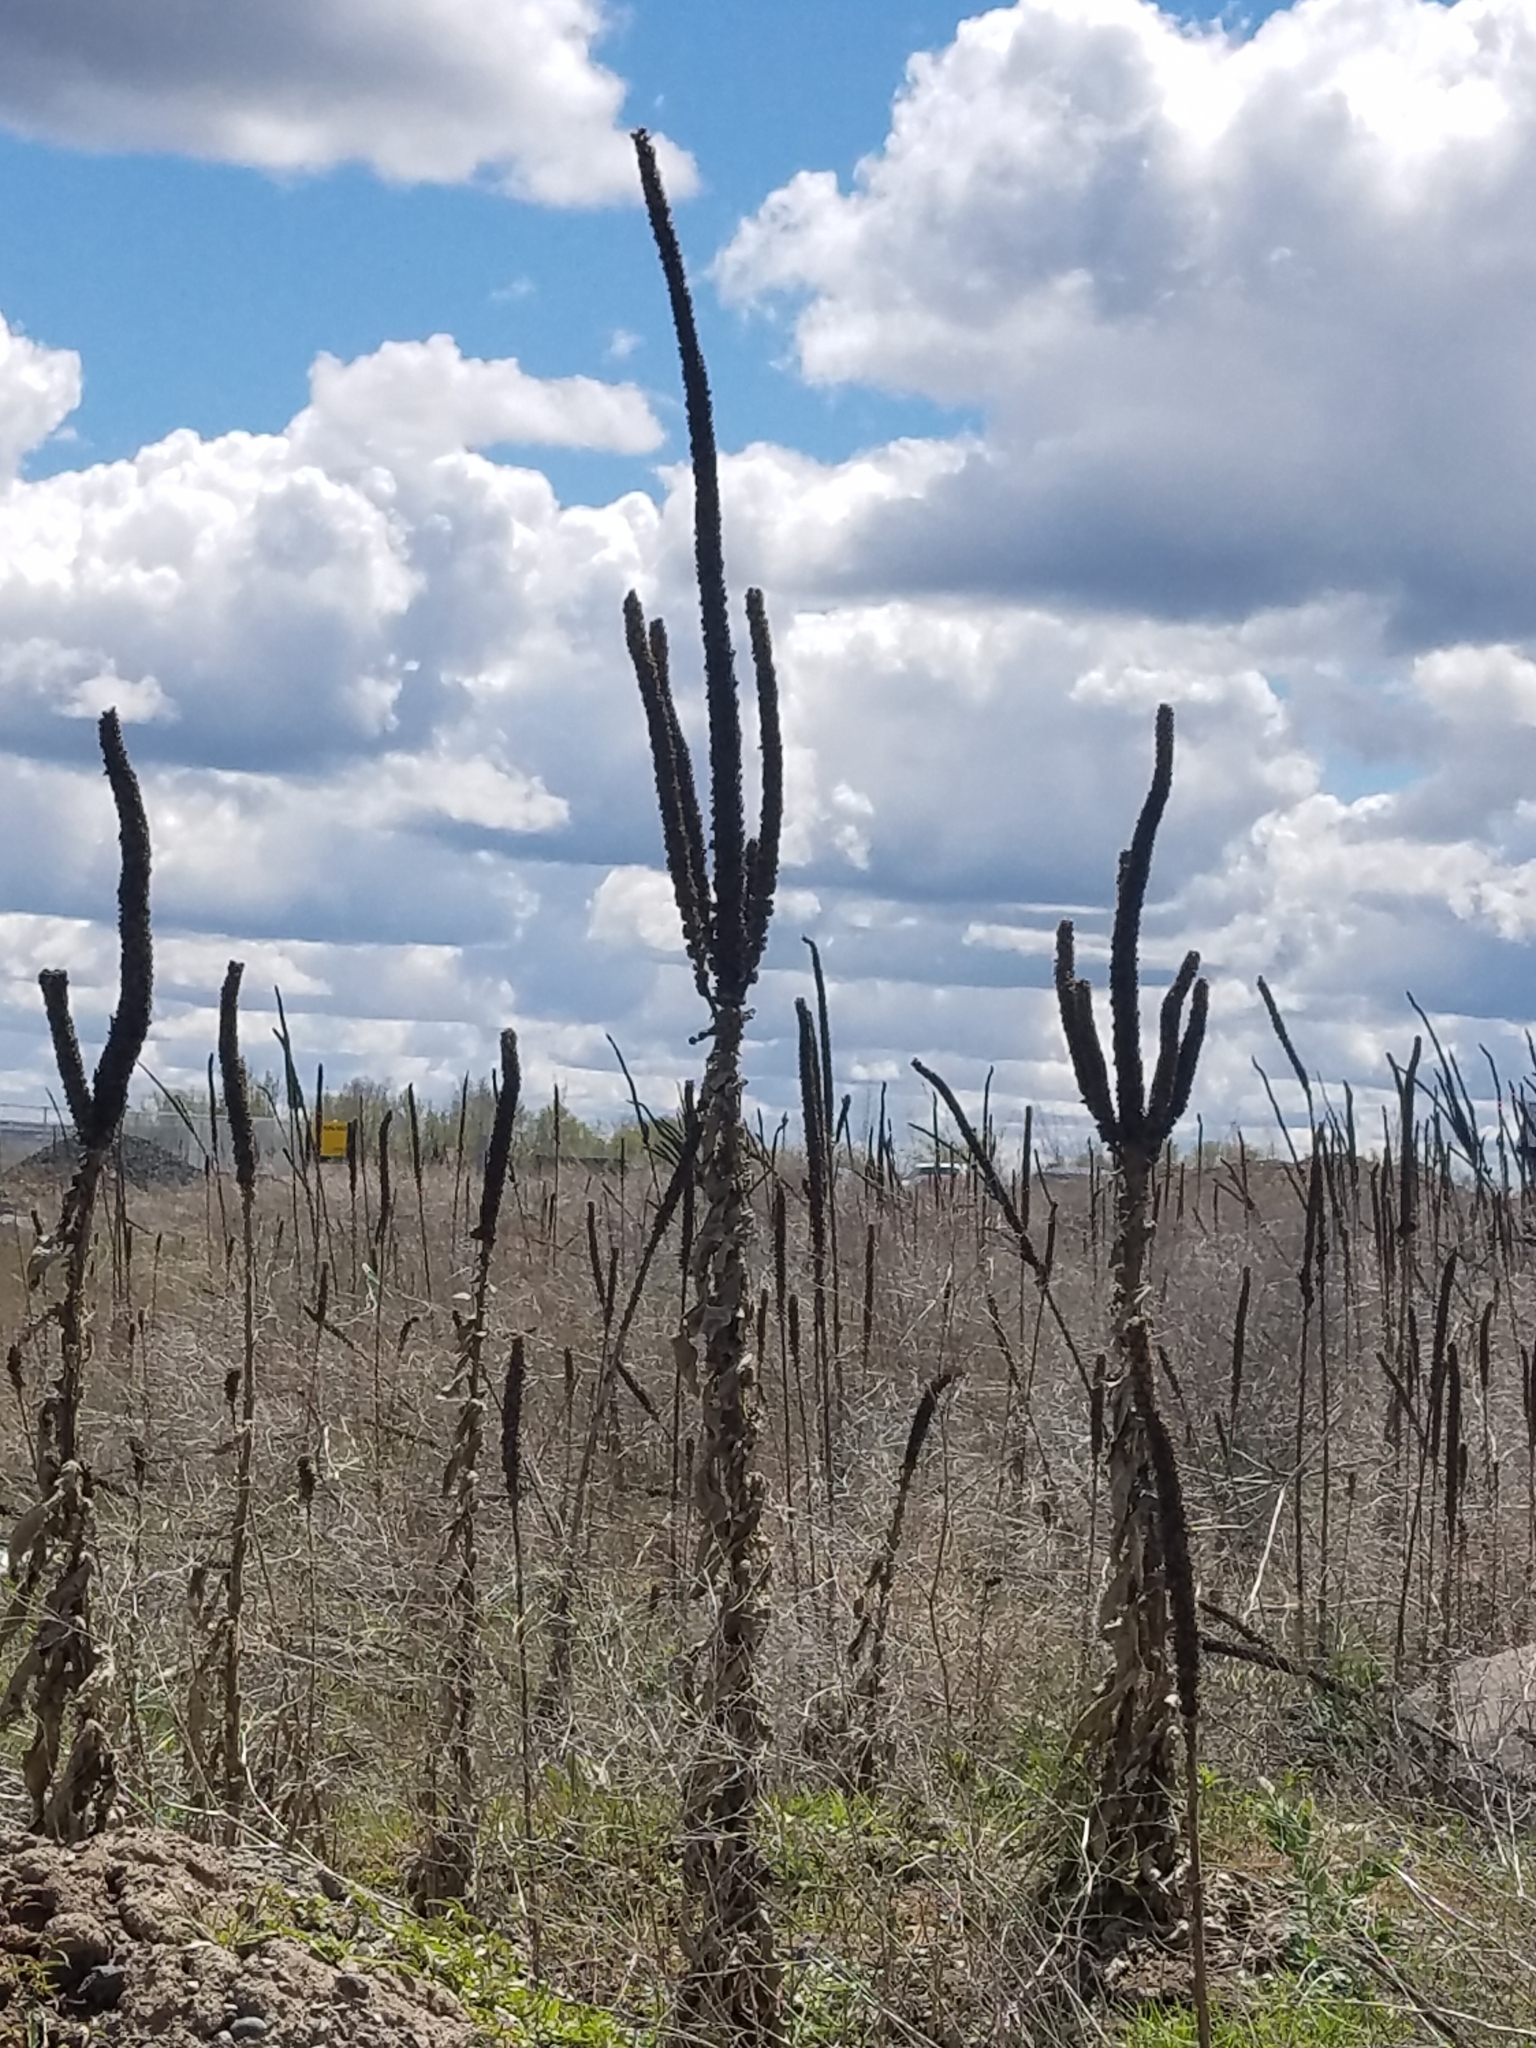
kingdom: Plantae
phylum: Tracheophyta
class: Magnoliopsida
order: Lamiales
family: Scrophulariaceae
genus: Verbascum
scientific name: Verbascum thapsus
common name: Common mullein
